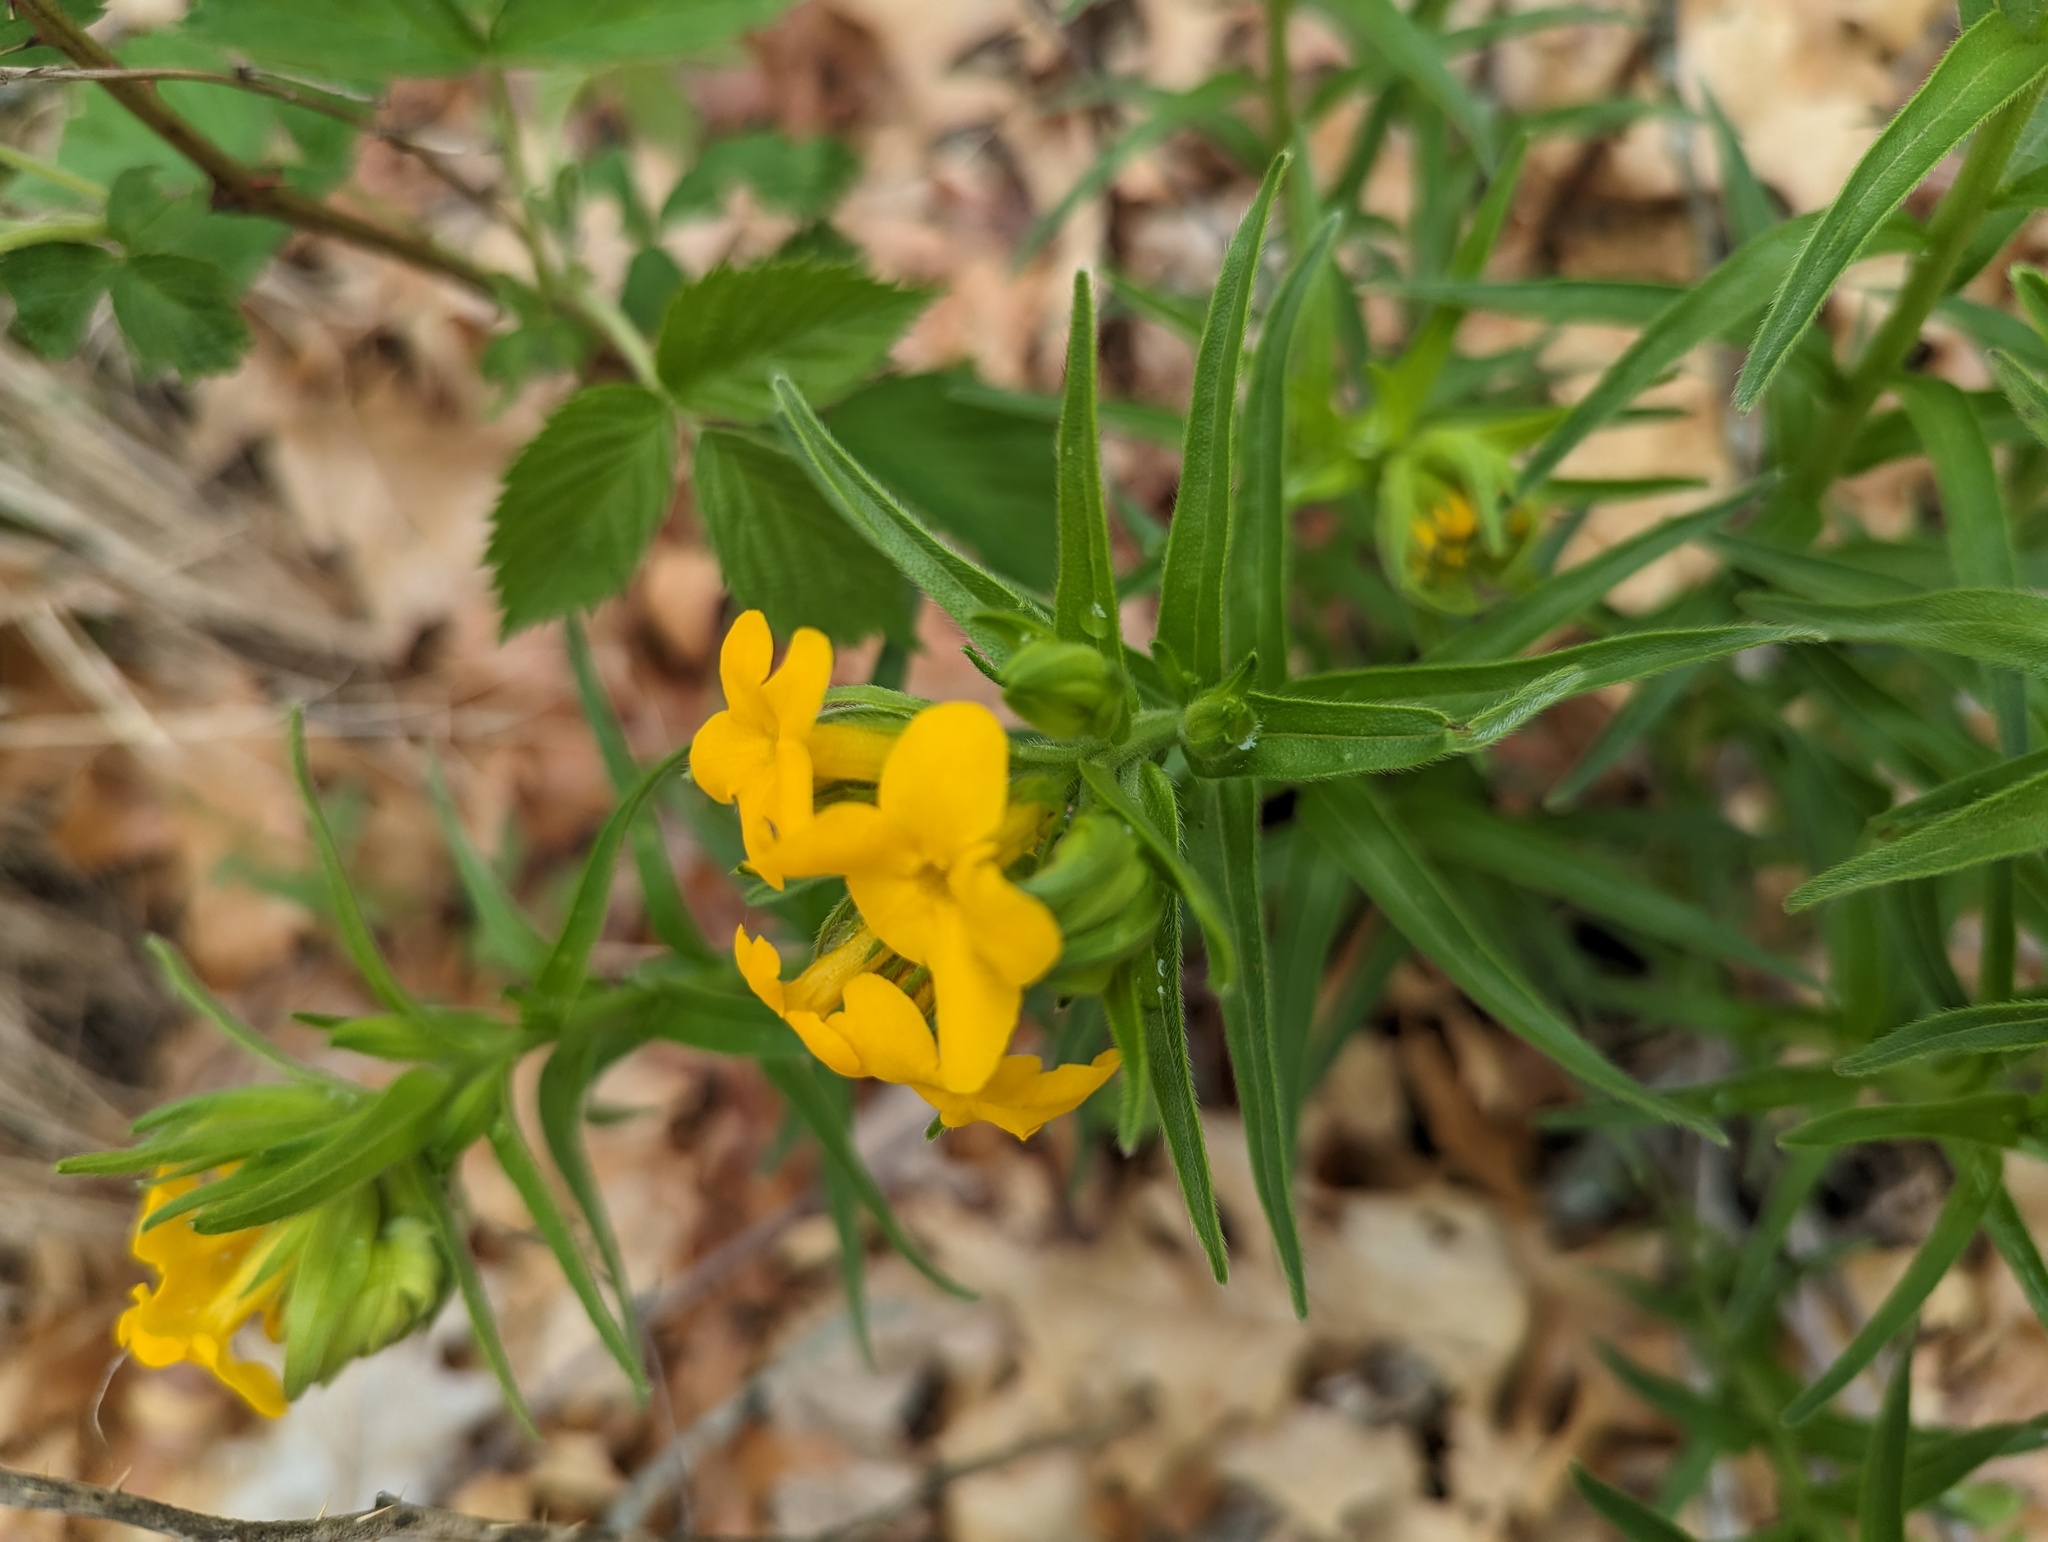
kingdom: Plantae
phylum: Tracheophyta
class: Magnoliopsida
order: Boraginales
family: Boraginaceae
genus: Lithospermum
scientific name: Lithospermum caroliniense
